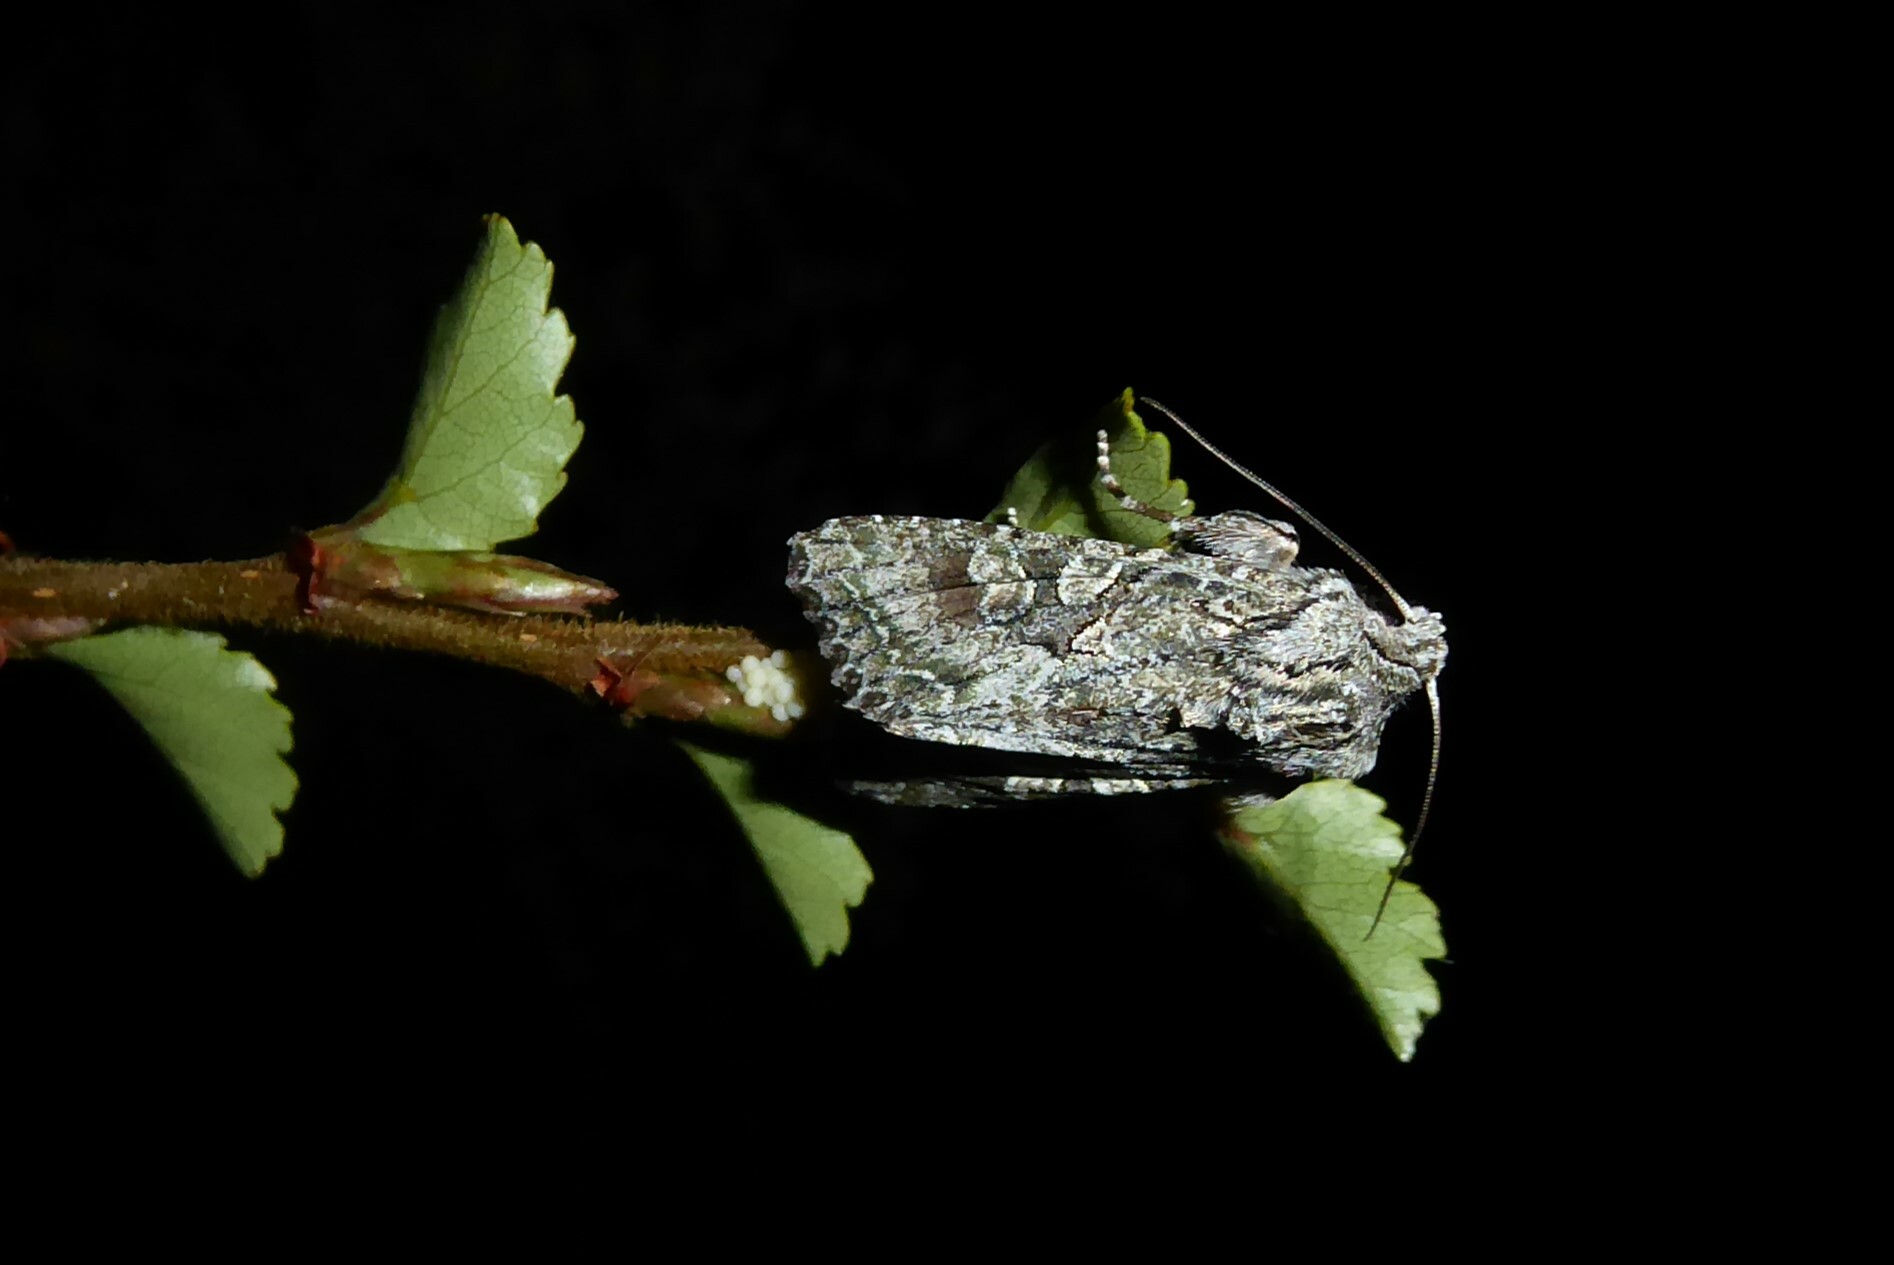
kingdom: Animalia
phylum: Arthropoda
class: Insecta
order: Lepidoptera
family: Noctuidae
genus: Ichneutica
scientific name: Ichneutica mutans
